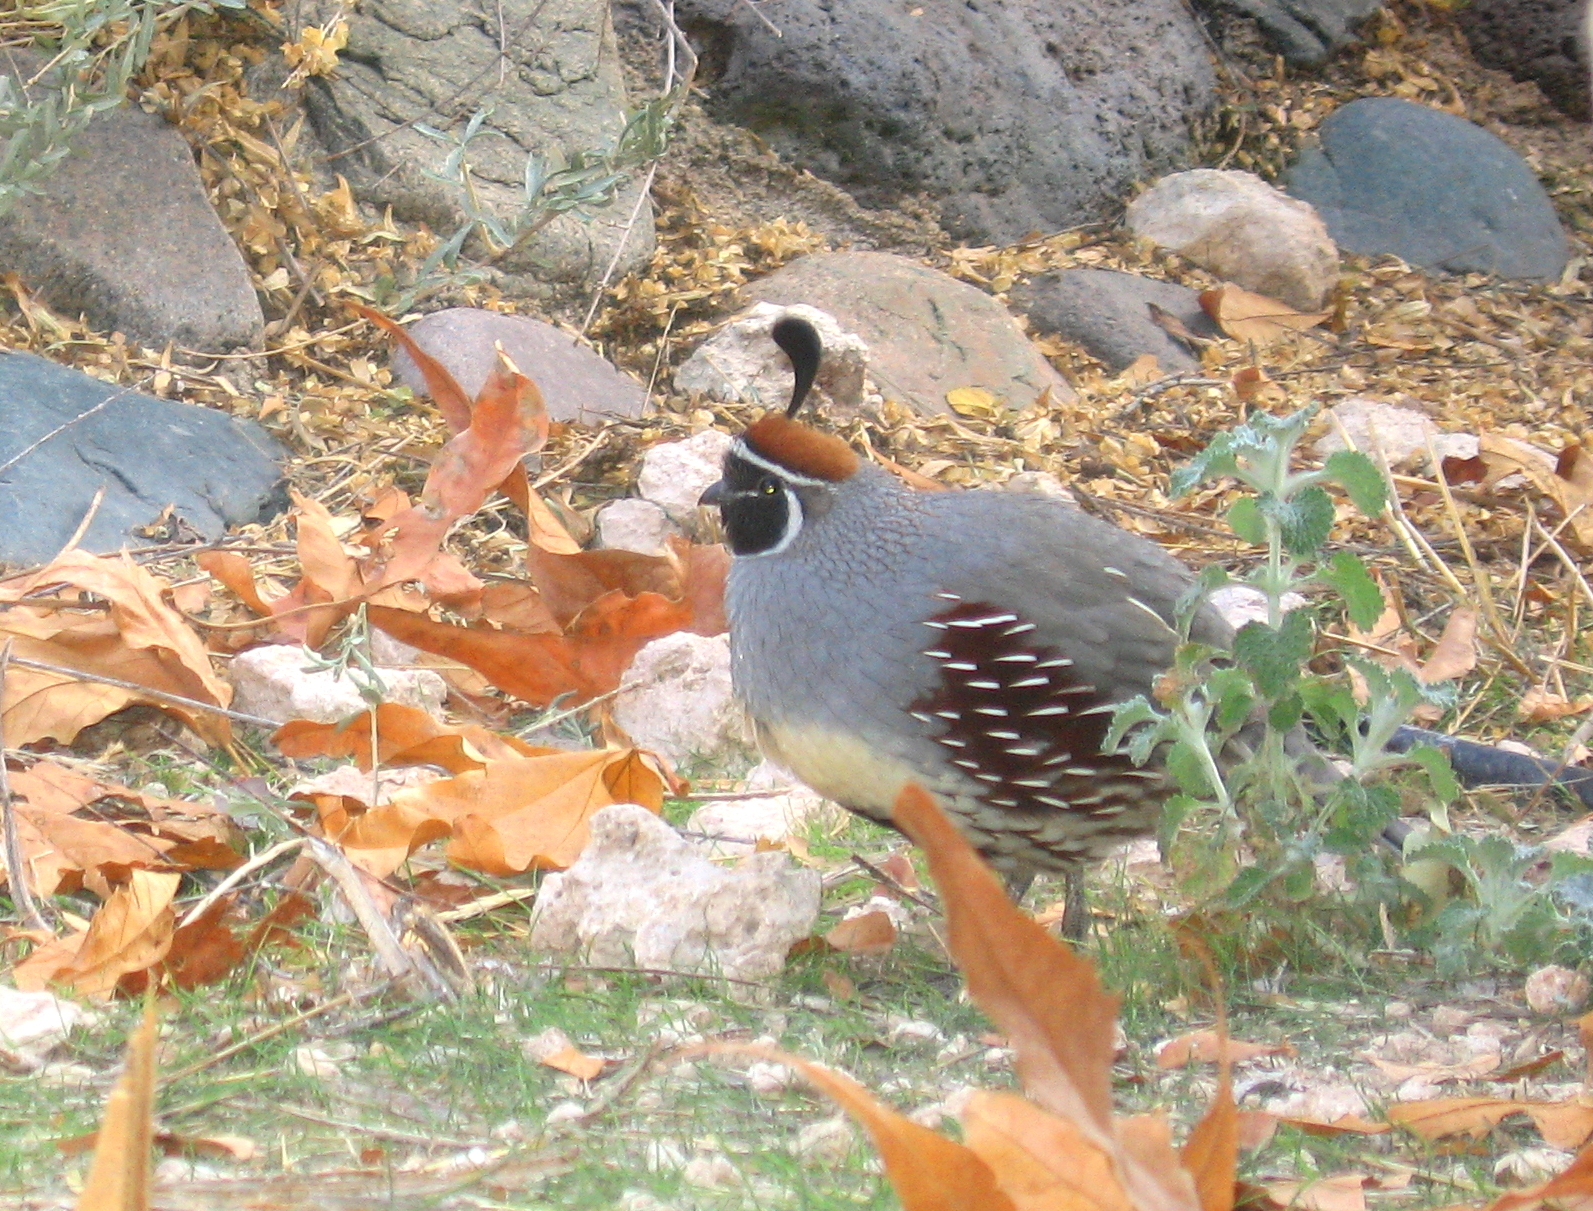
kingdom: Animalia
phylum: Chordata
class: Aves
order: Galliformes
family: Odontophoridae
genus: Callipepla
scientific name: Callipepla gambelii
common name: Gambel's quail
